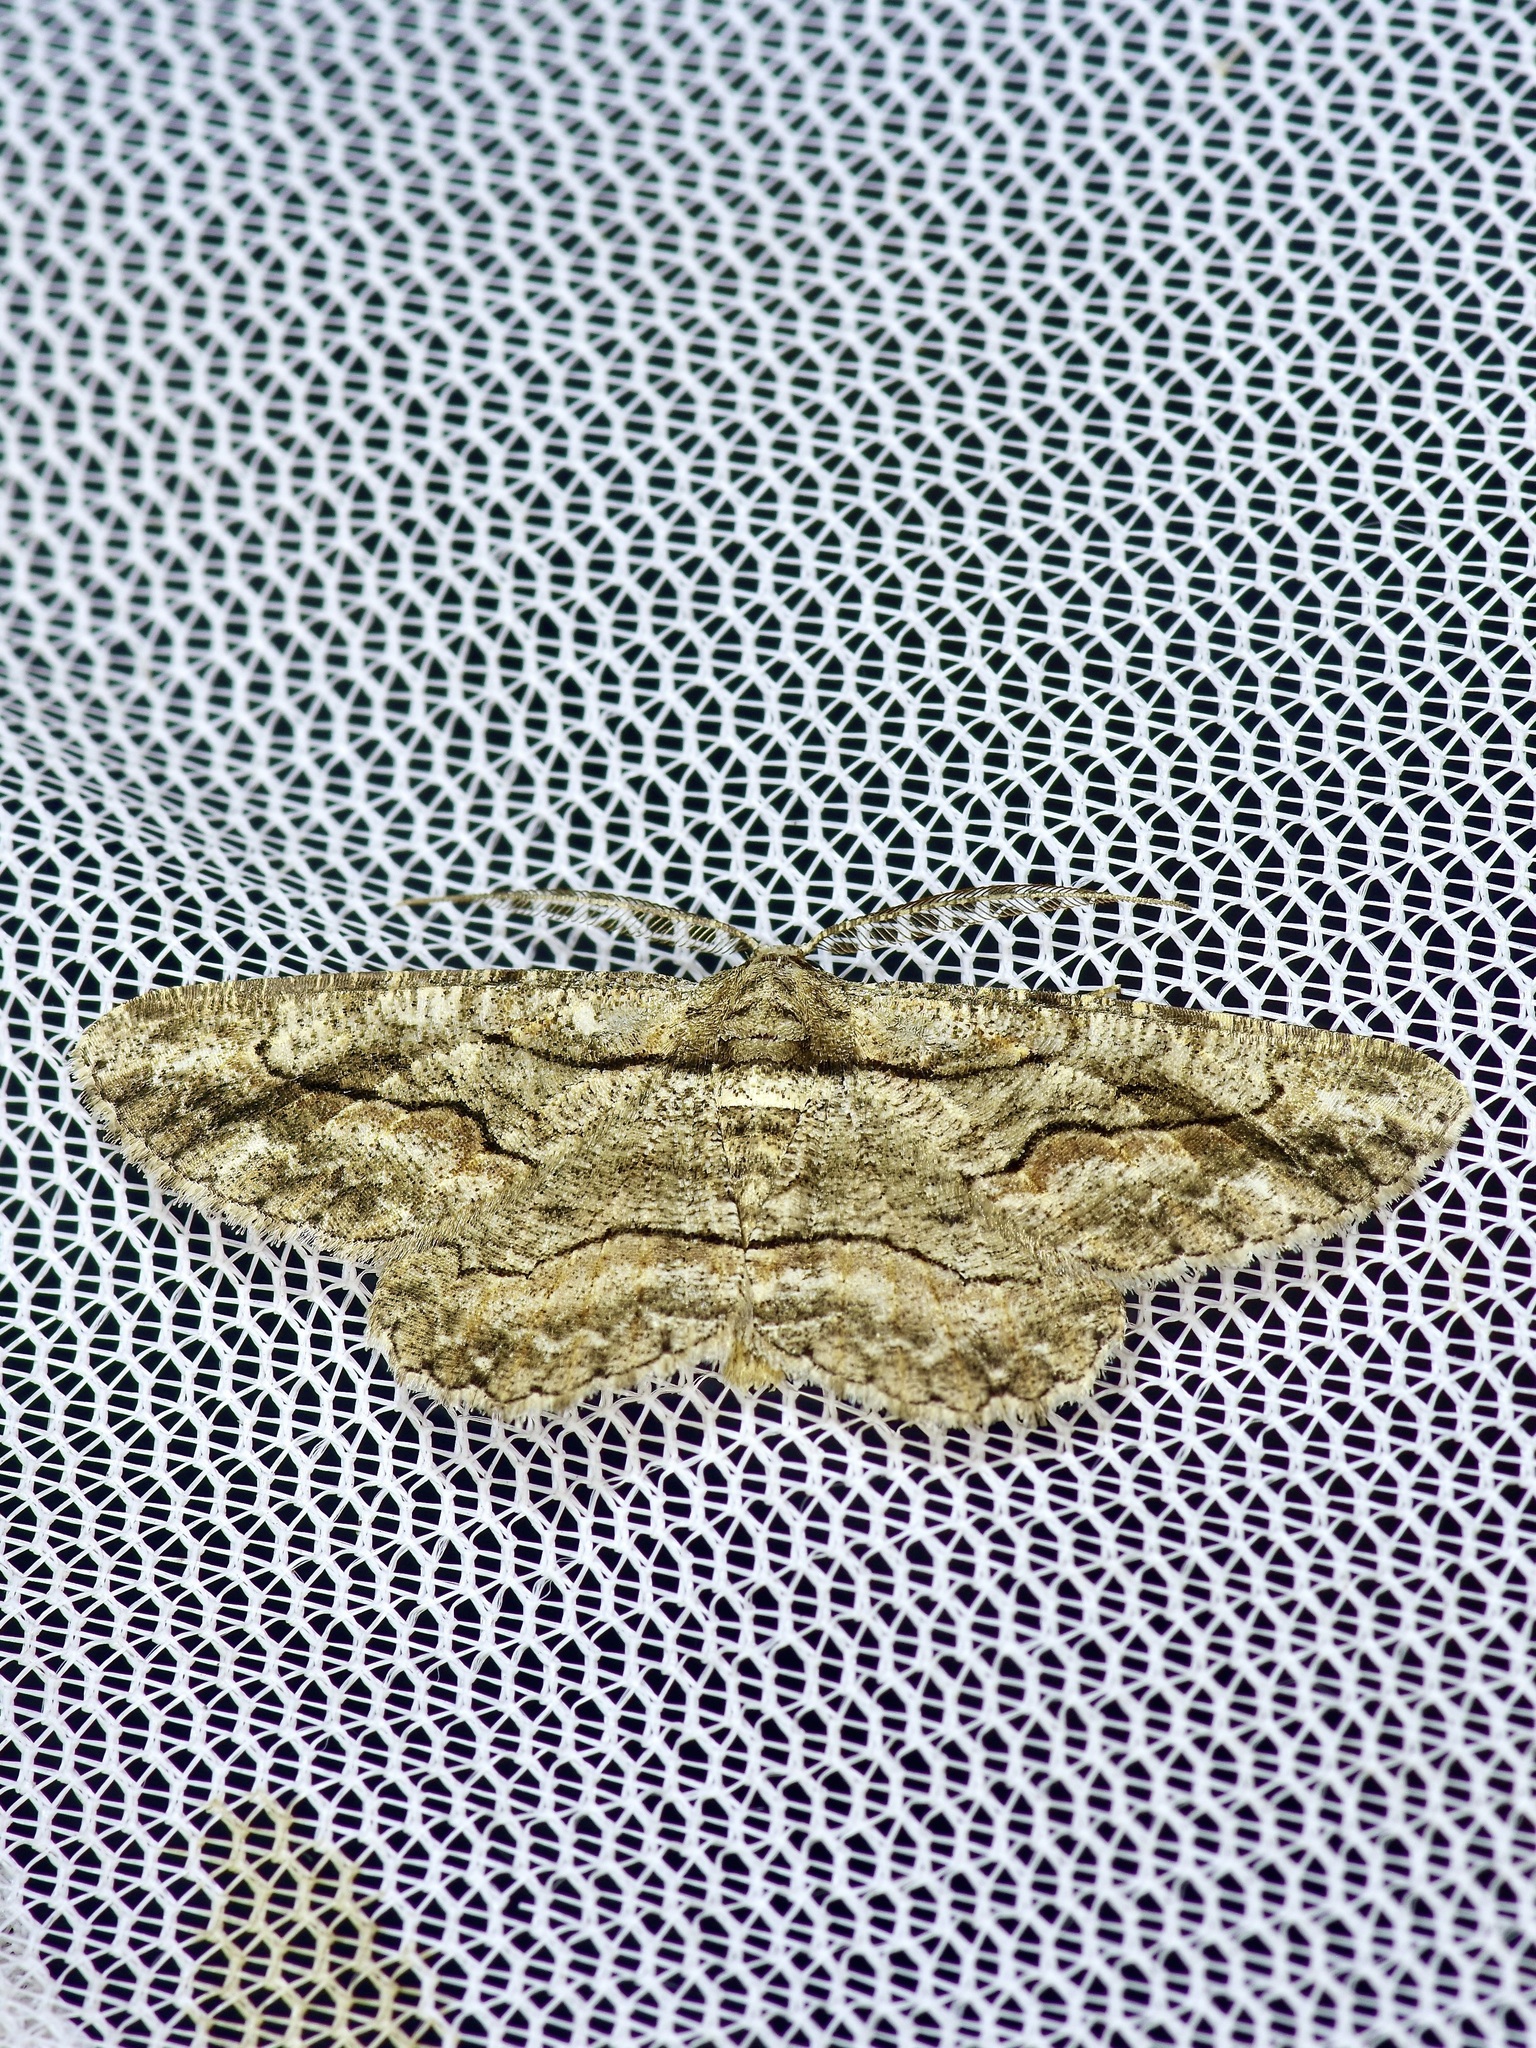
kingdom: Animalia
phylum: Arthropoda
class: Insecta
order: Lepidoptera
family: Geometridae
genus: Anavitrinella
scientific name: Anavitrinella pampinaria
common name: Common gray
